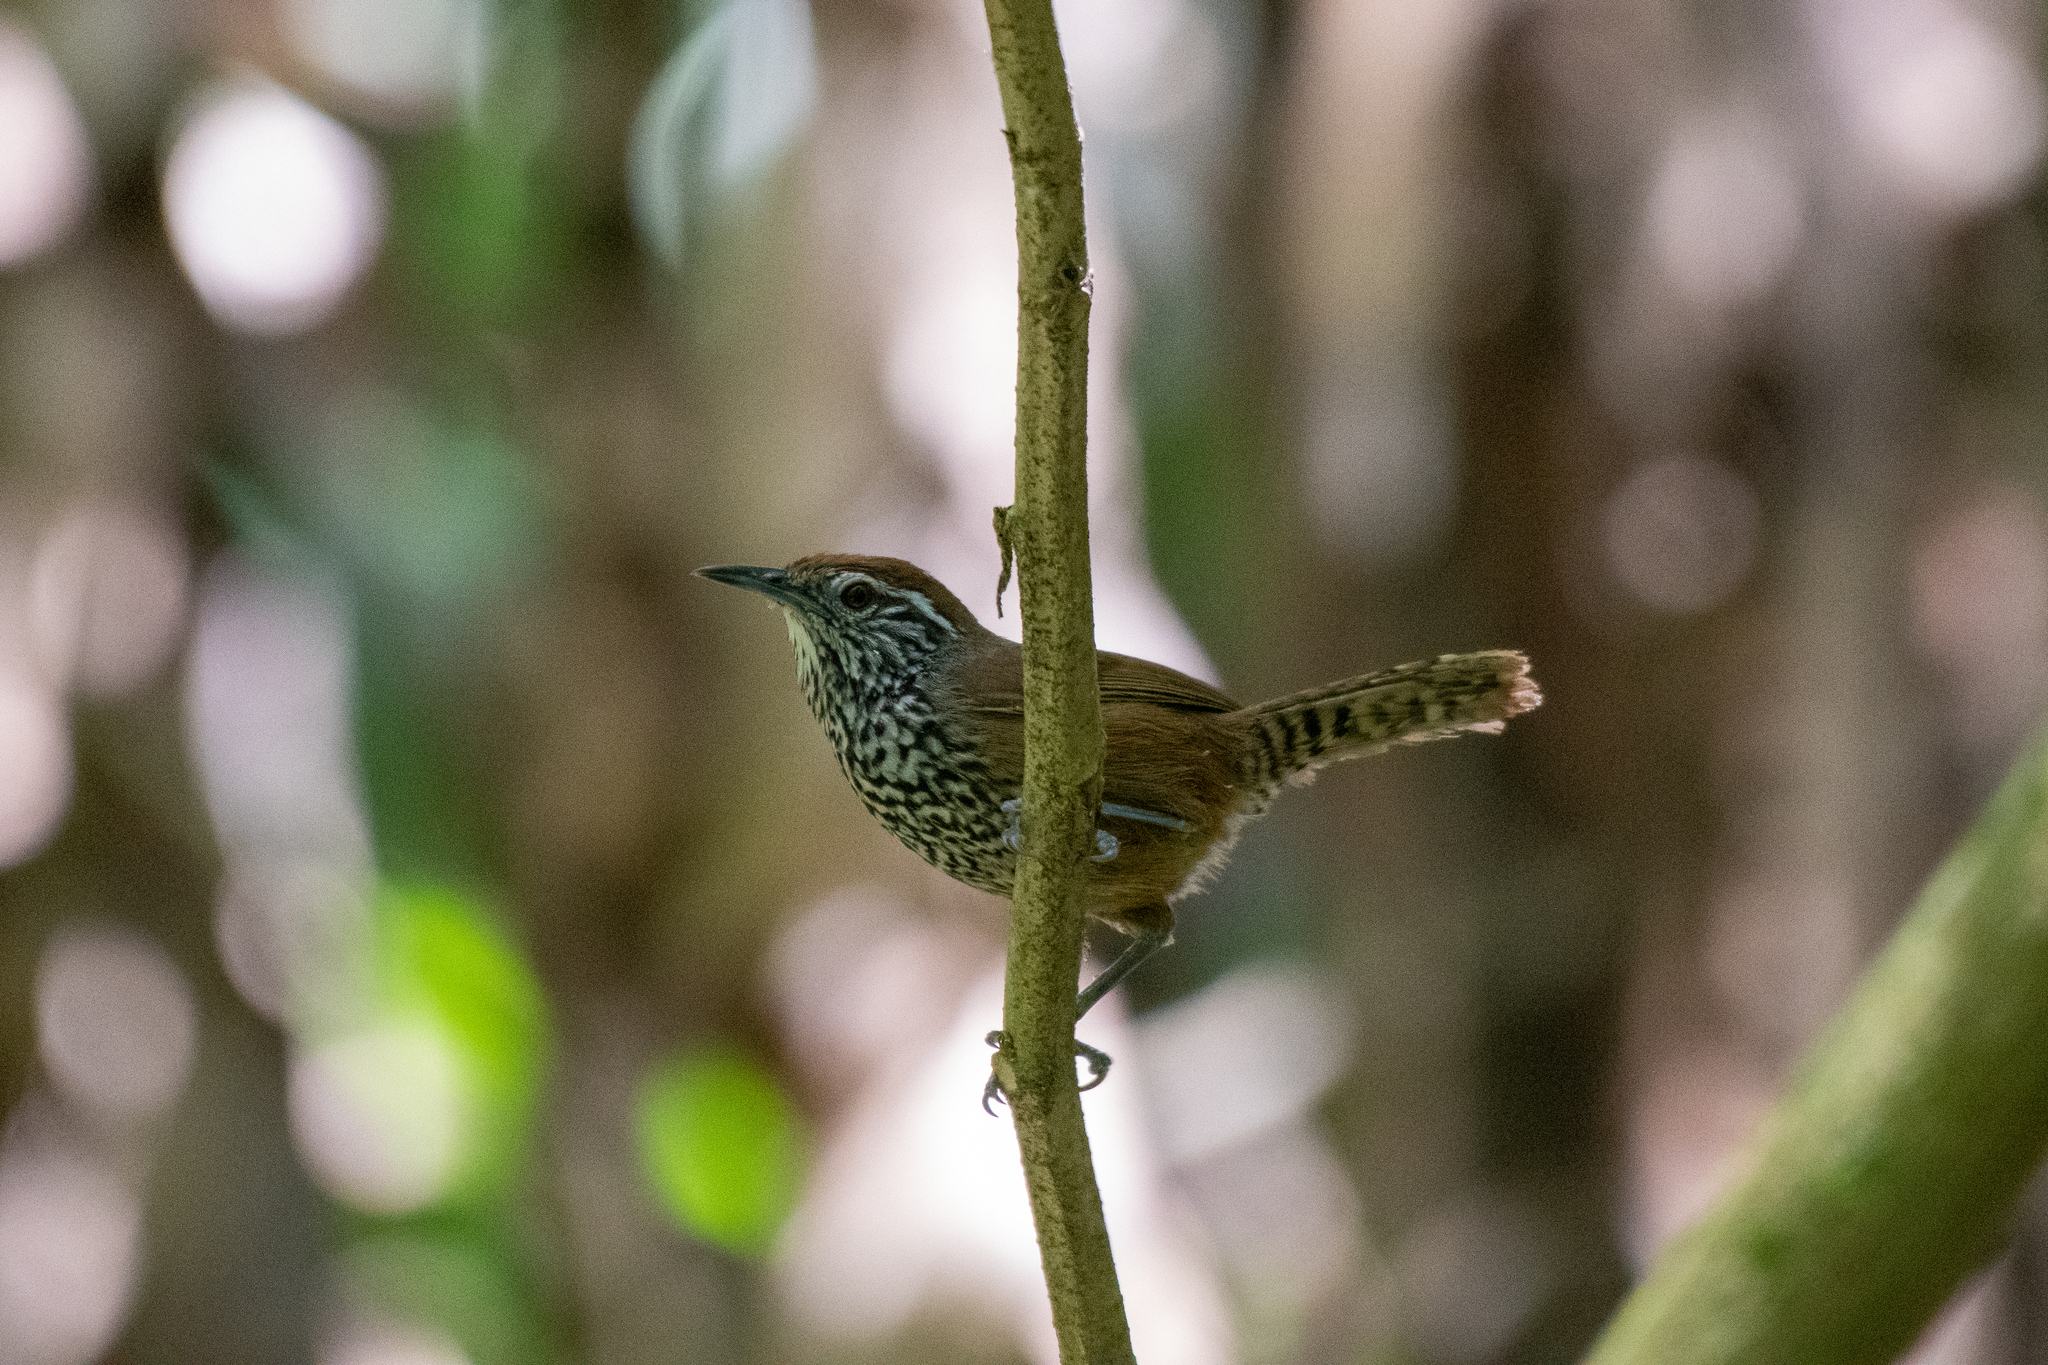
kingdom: Animalia
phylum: Chordata
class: Aves
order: Passeriformes
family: Troglodytidae
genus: Pheugopedius
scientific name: Pheugopedius maculipectus
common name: Spot-breasted wren
